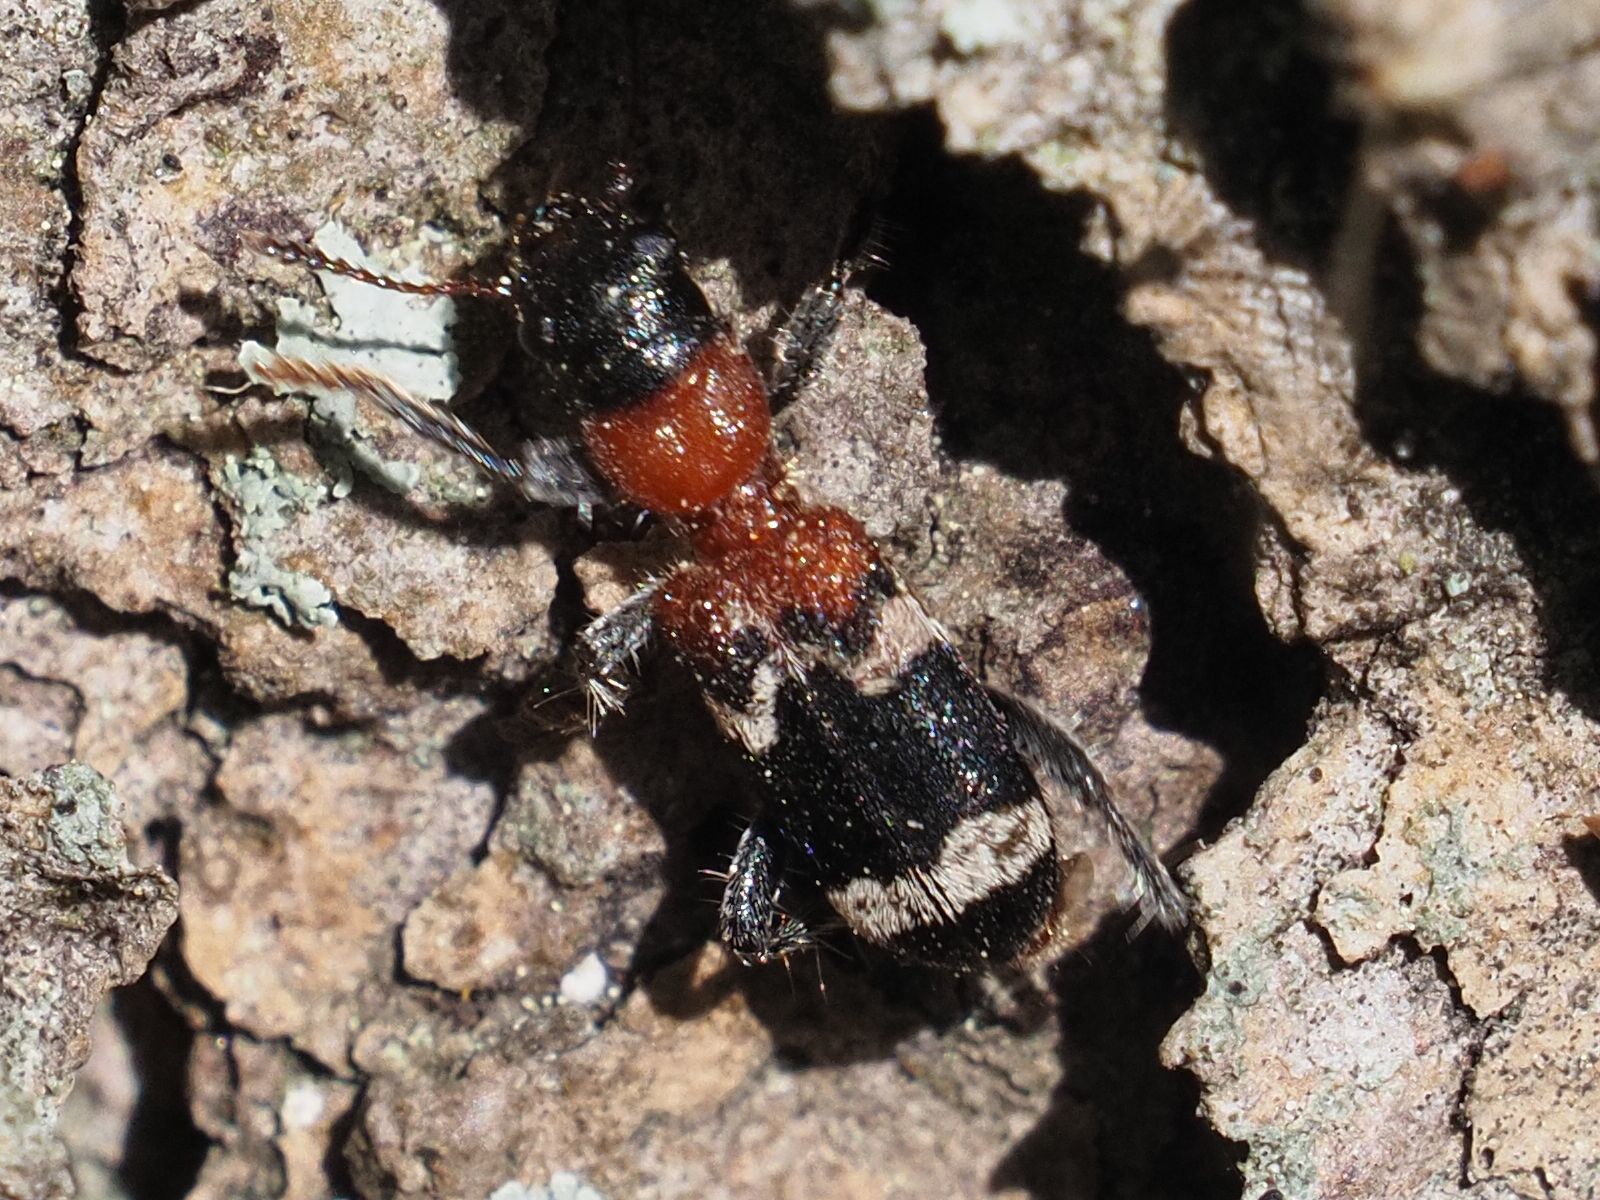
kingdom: Animalia
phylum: Arthropoda
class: Insecta
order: Coleoptera
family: Cleridae
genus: Thanasimus
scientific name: Thanasimus formicarius
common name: Ant beetle
